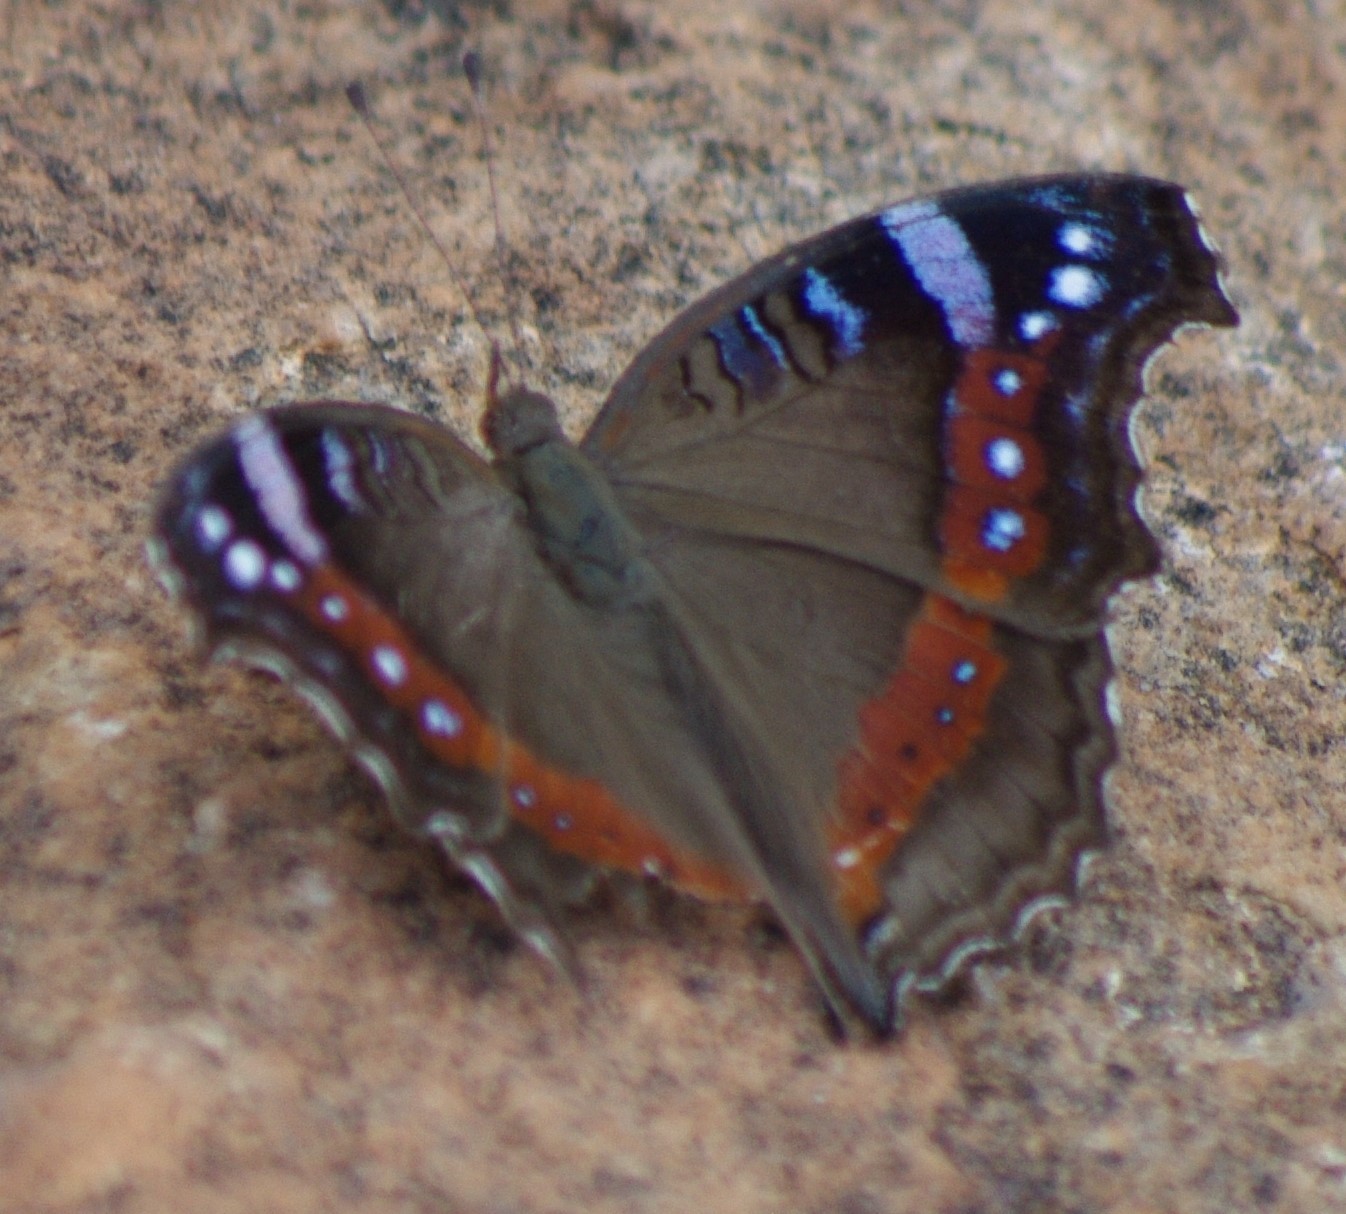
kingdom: Animalia
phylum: Arthropoda
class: Insecta
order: Lepidoptera
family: Nymphalidae
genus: Junonia
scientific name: Junonia archesia
